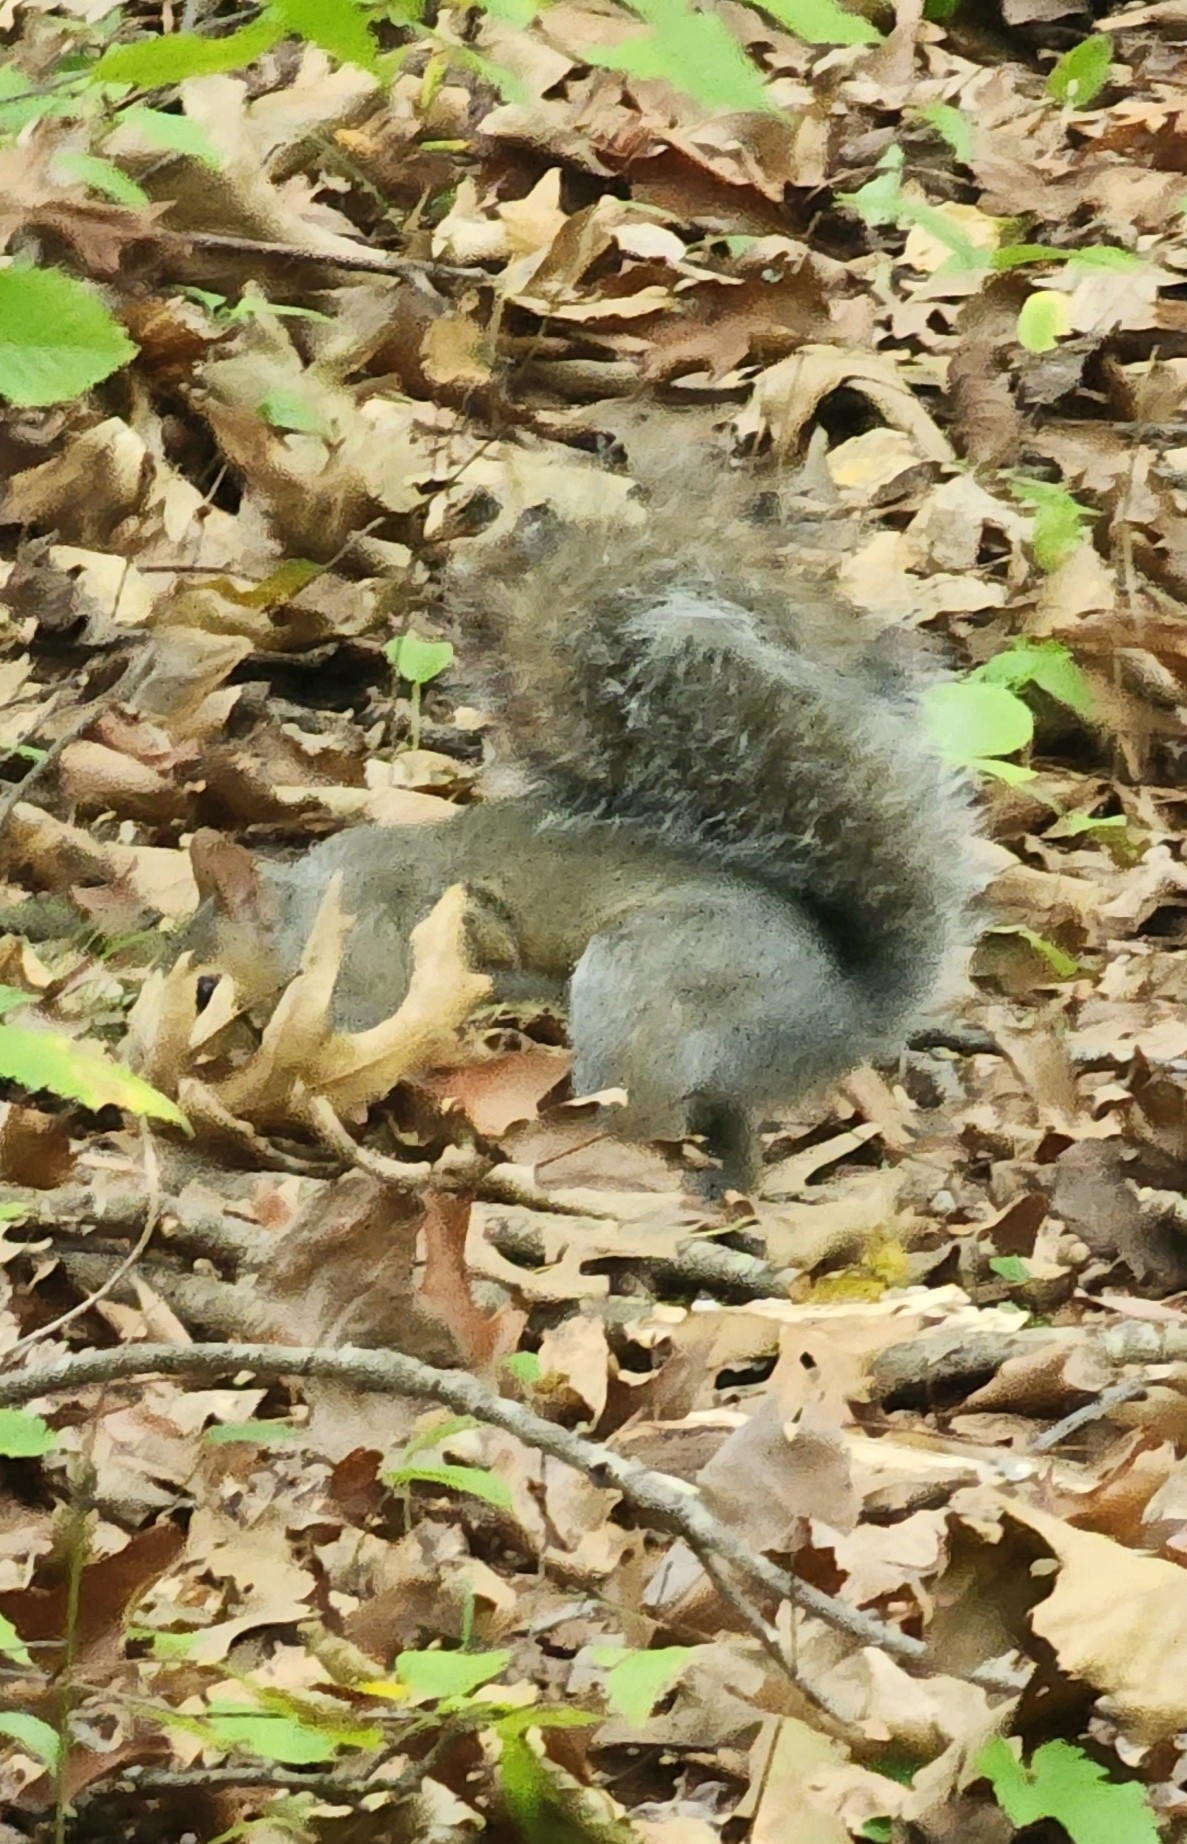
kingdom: Animalia
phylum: Chordata
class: Mammalia
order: Rodentia
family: Sciuridae
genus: Sciurus
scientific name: Sciurus carolinensis
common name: Eastern gray squirrel
